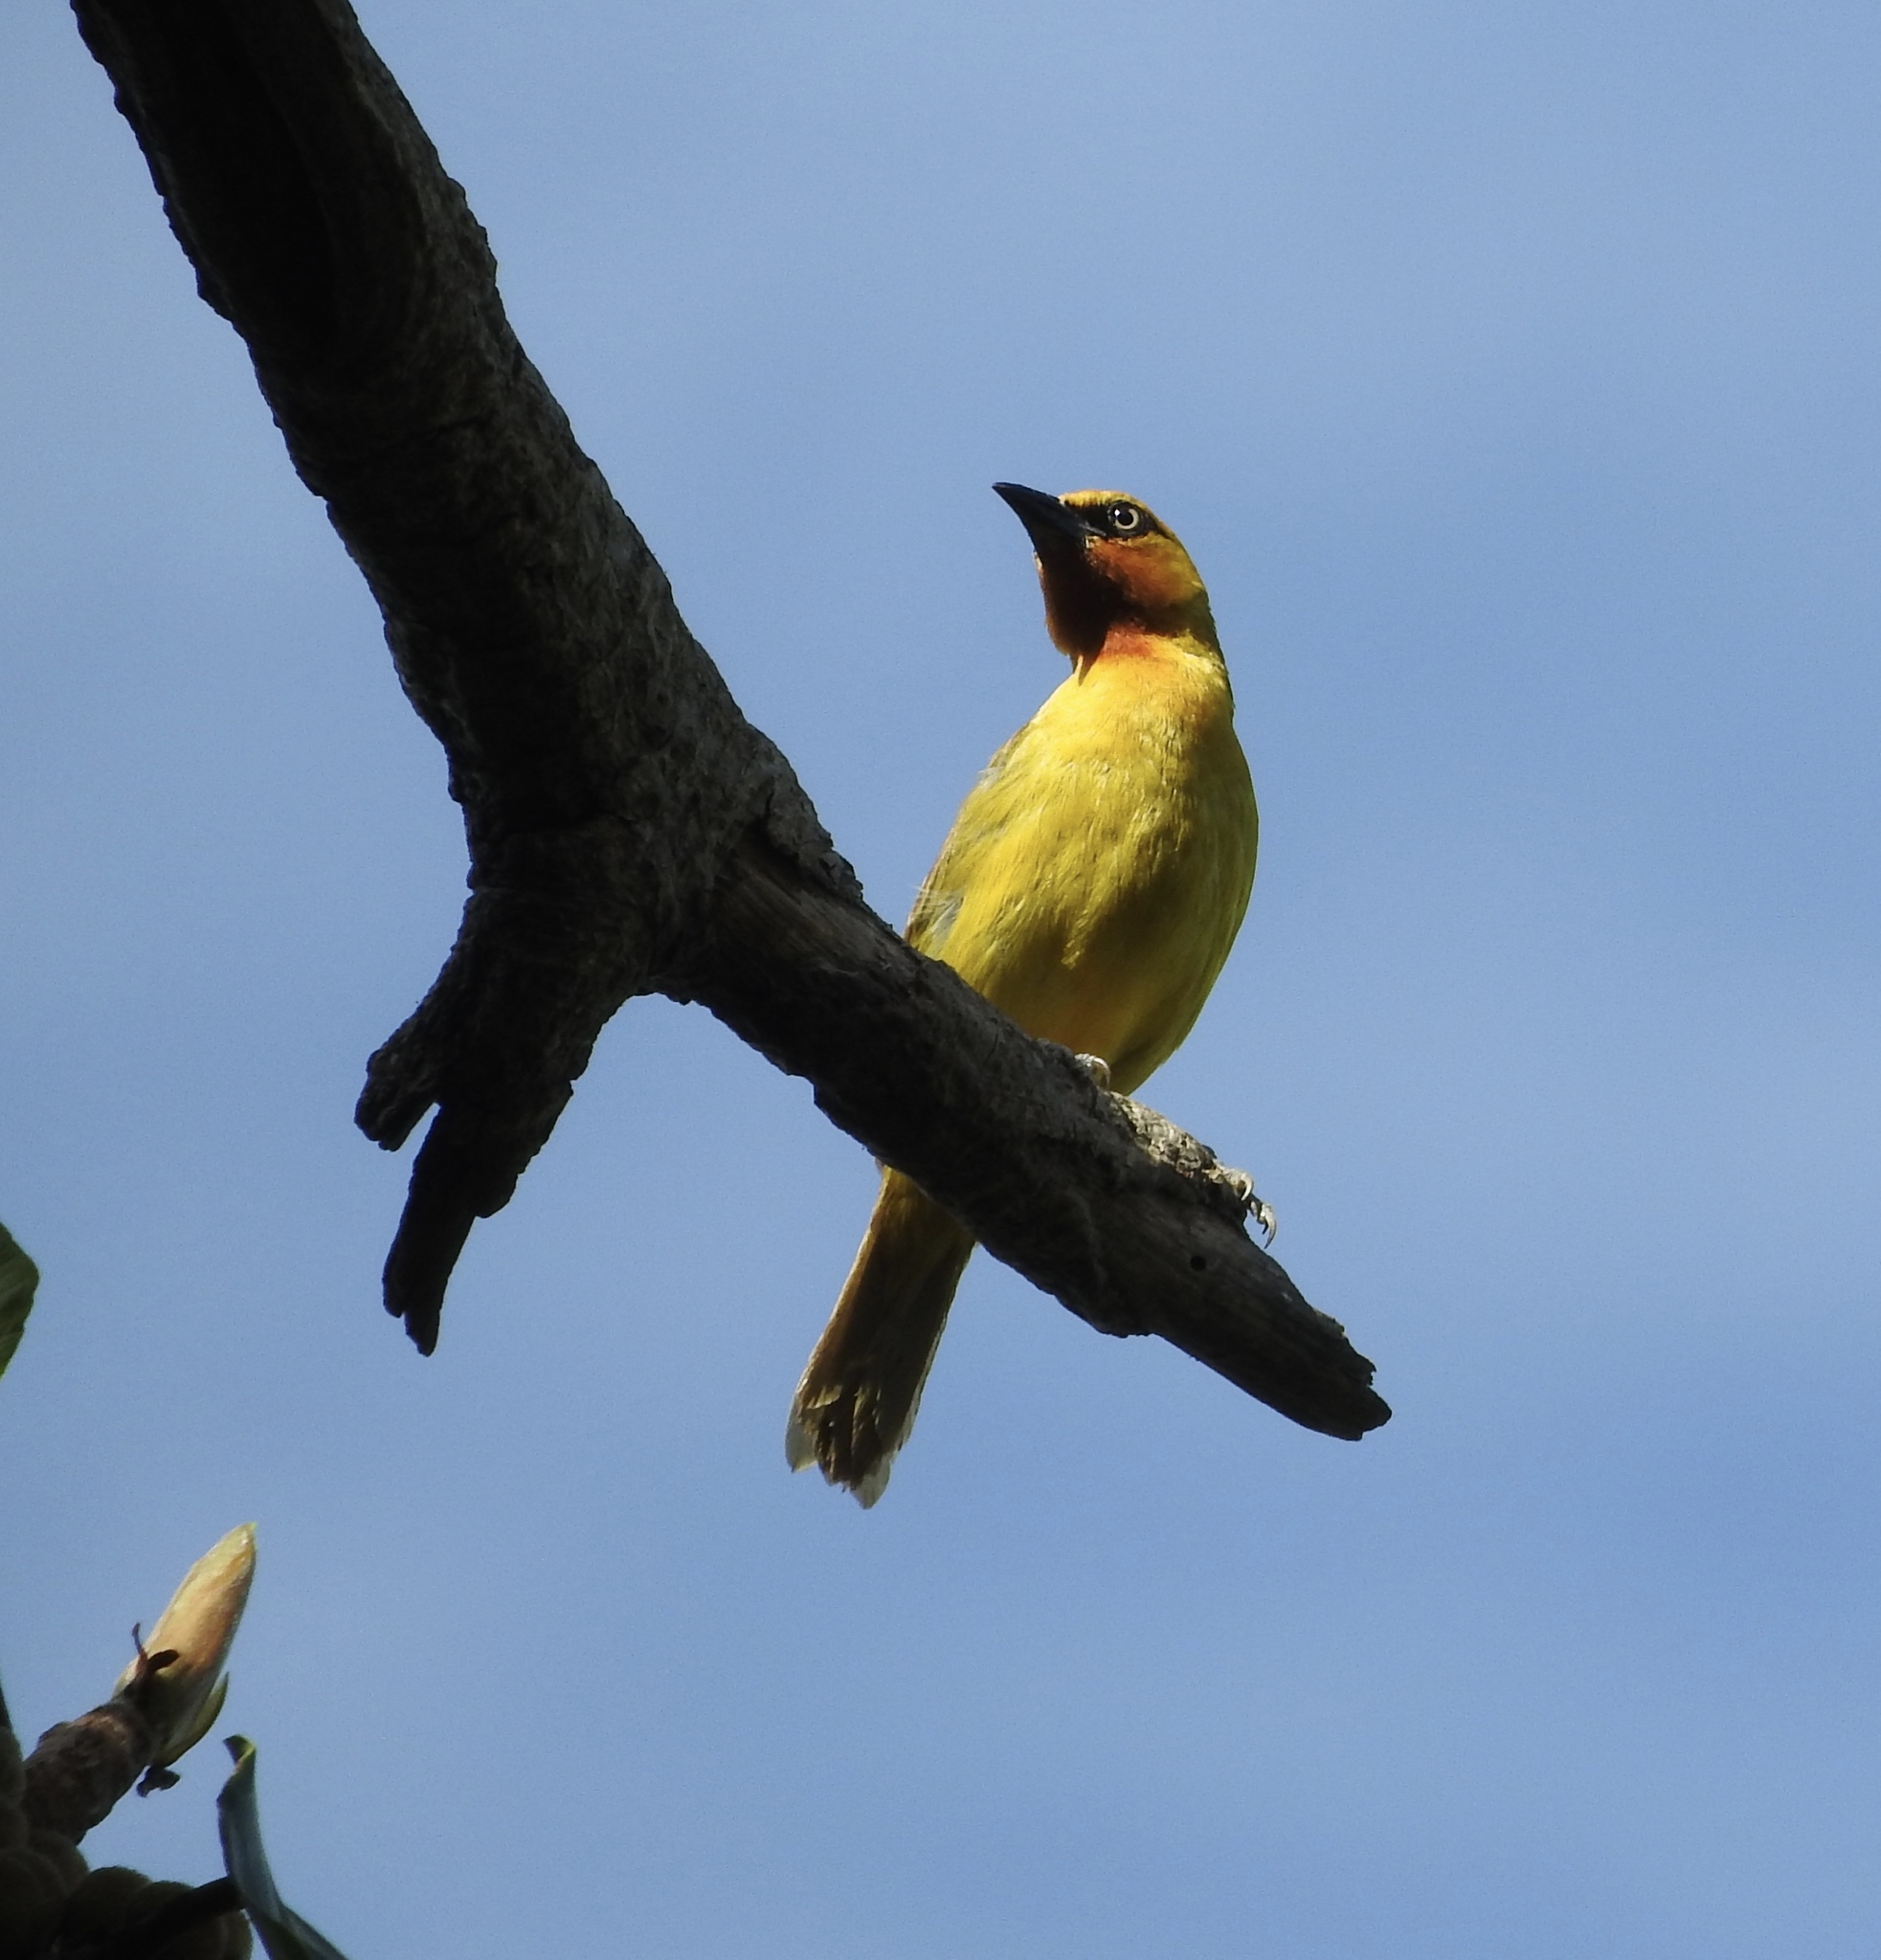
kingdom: Animalia
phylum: Chordata
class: Aves
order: Passeriformes
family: Ploceidae
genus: Ploceus
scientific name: Ploceus ocularis
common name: Spectacled weaver
